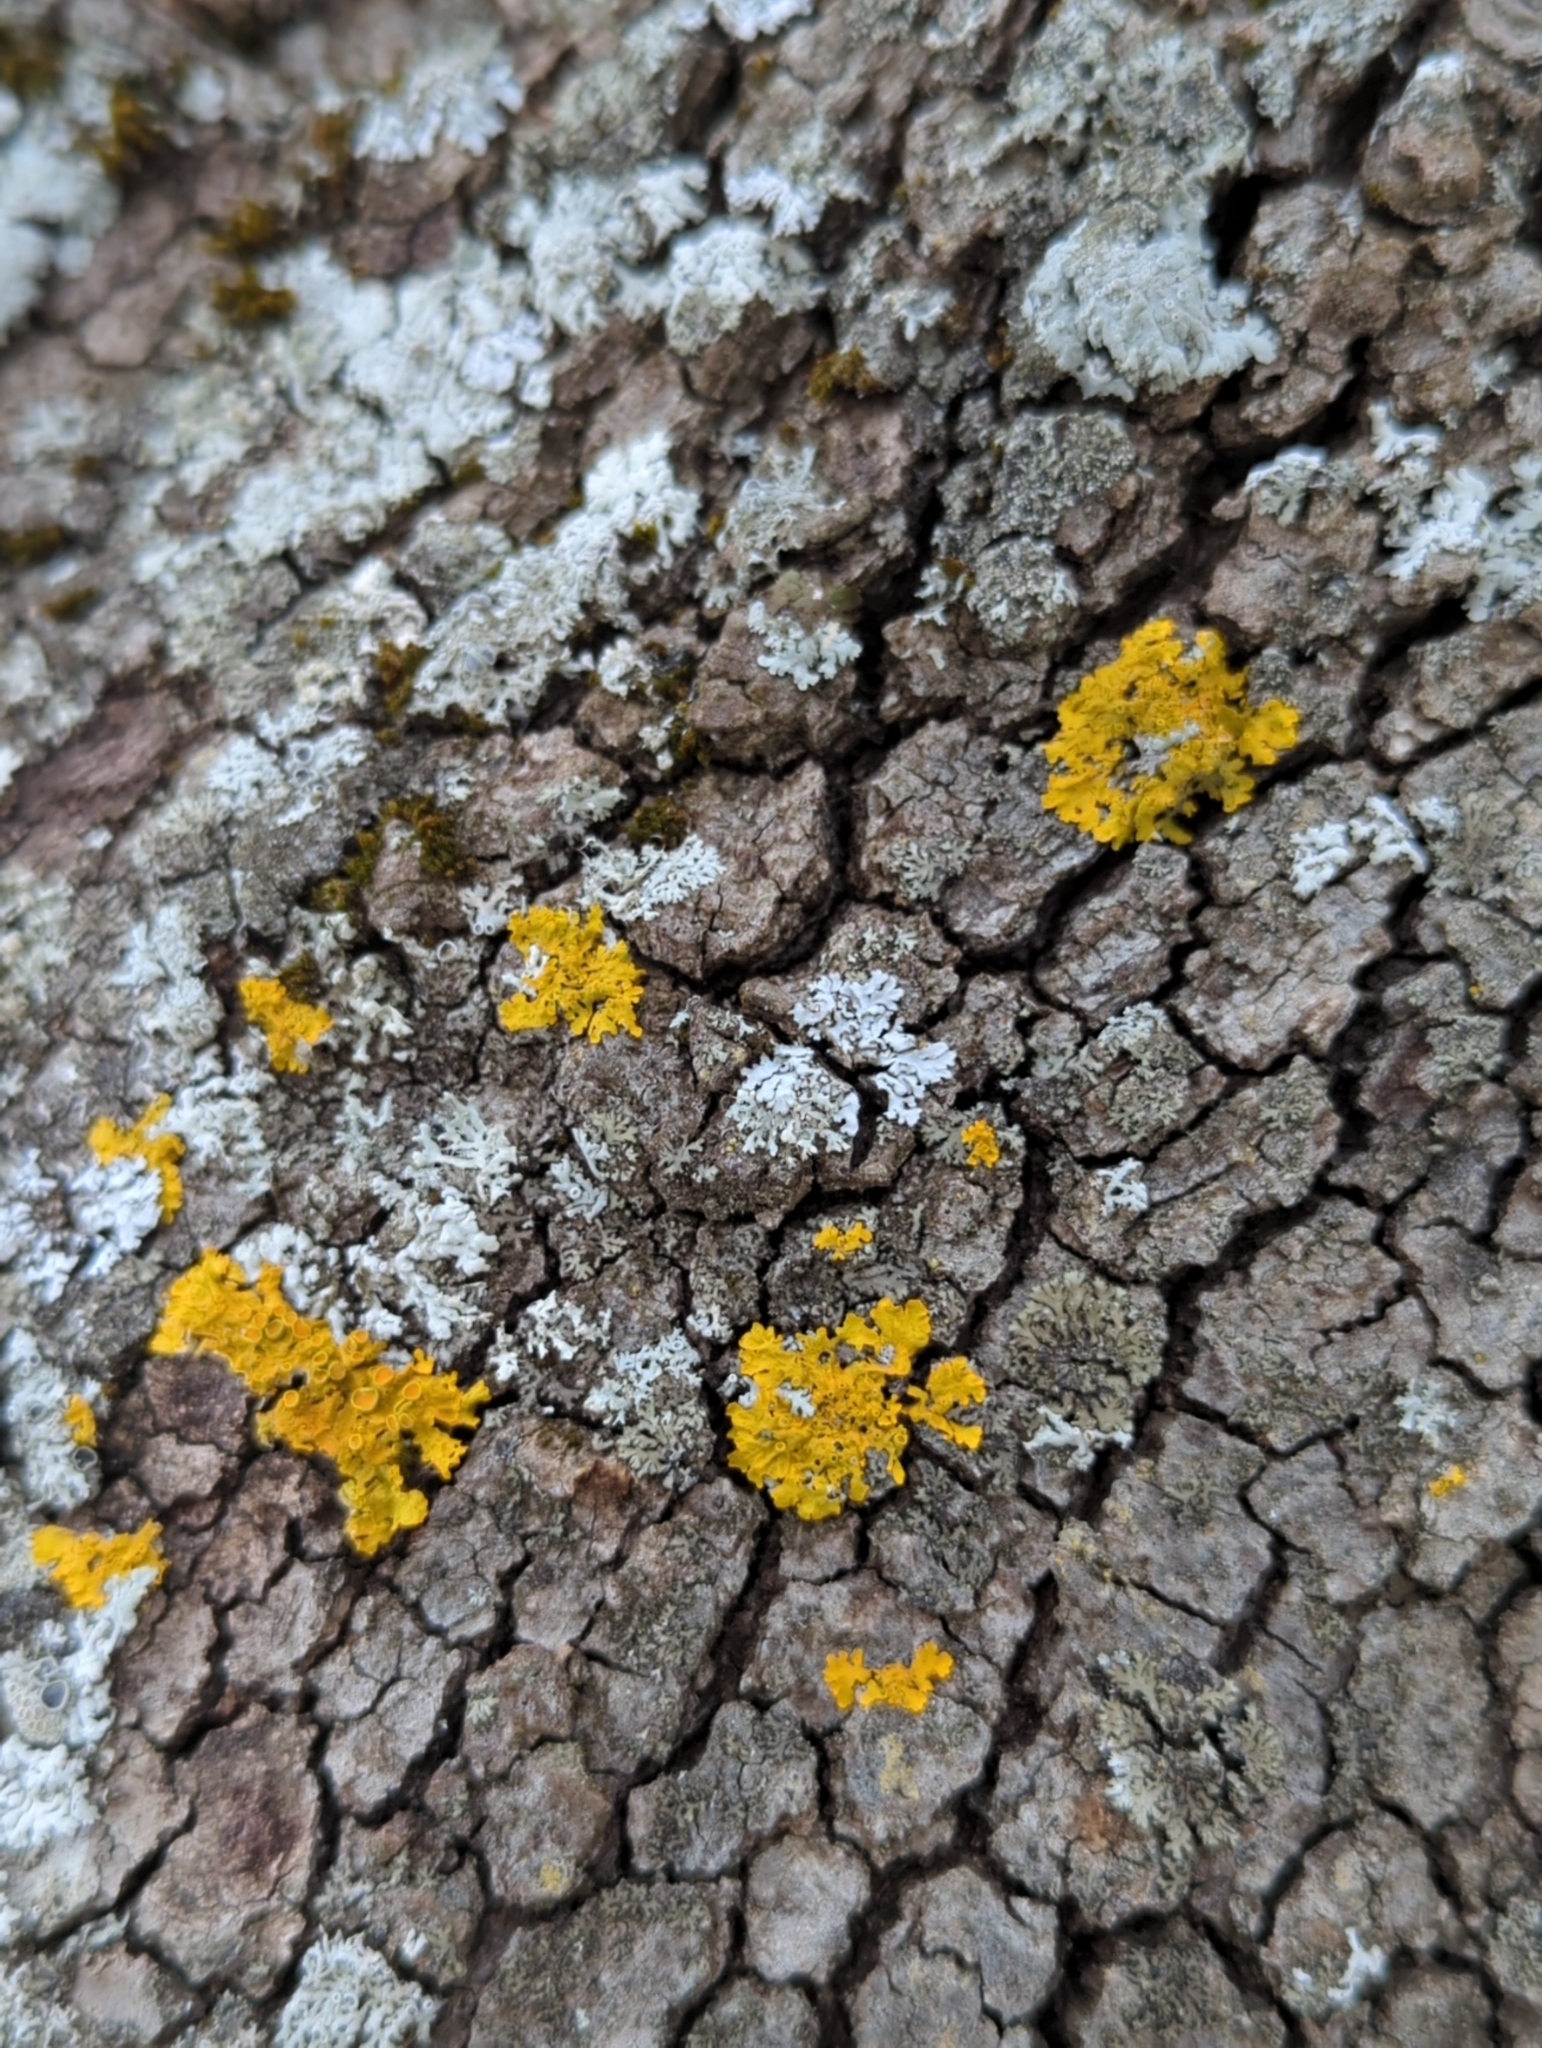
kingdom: Fungi
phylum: Ascomycota
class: Lecanoromycetes
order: Teloschistales
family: Teloschistaceae
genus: Xanthoria
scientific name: Xanthoria parietina
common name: Common orange lichen
